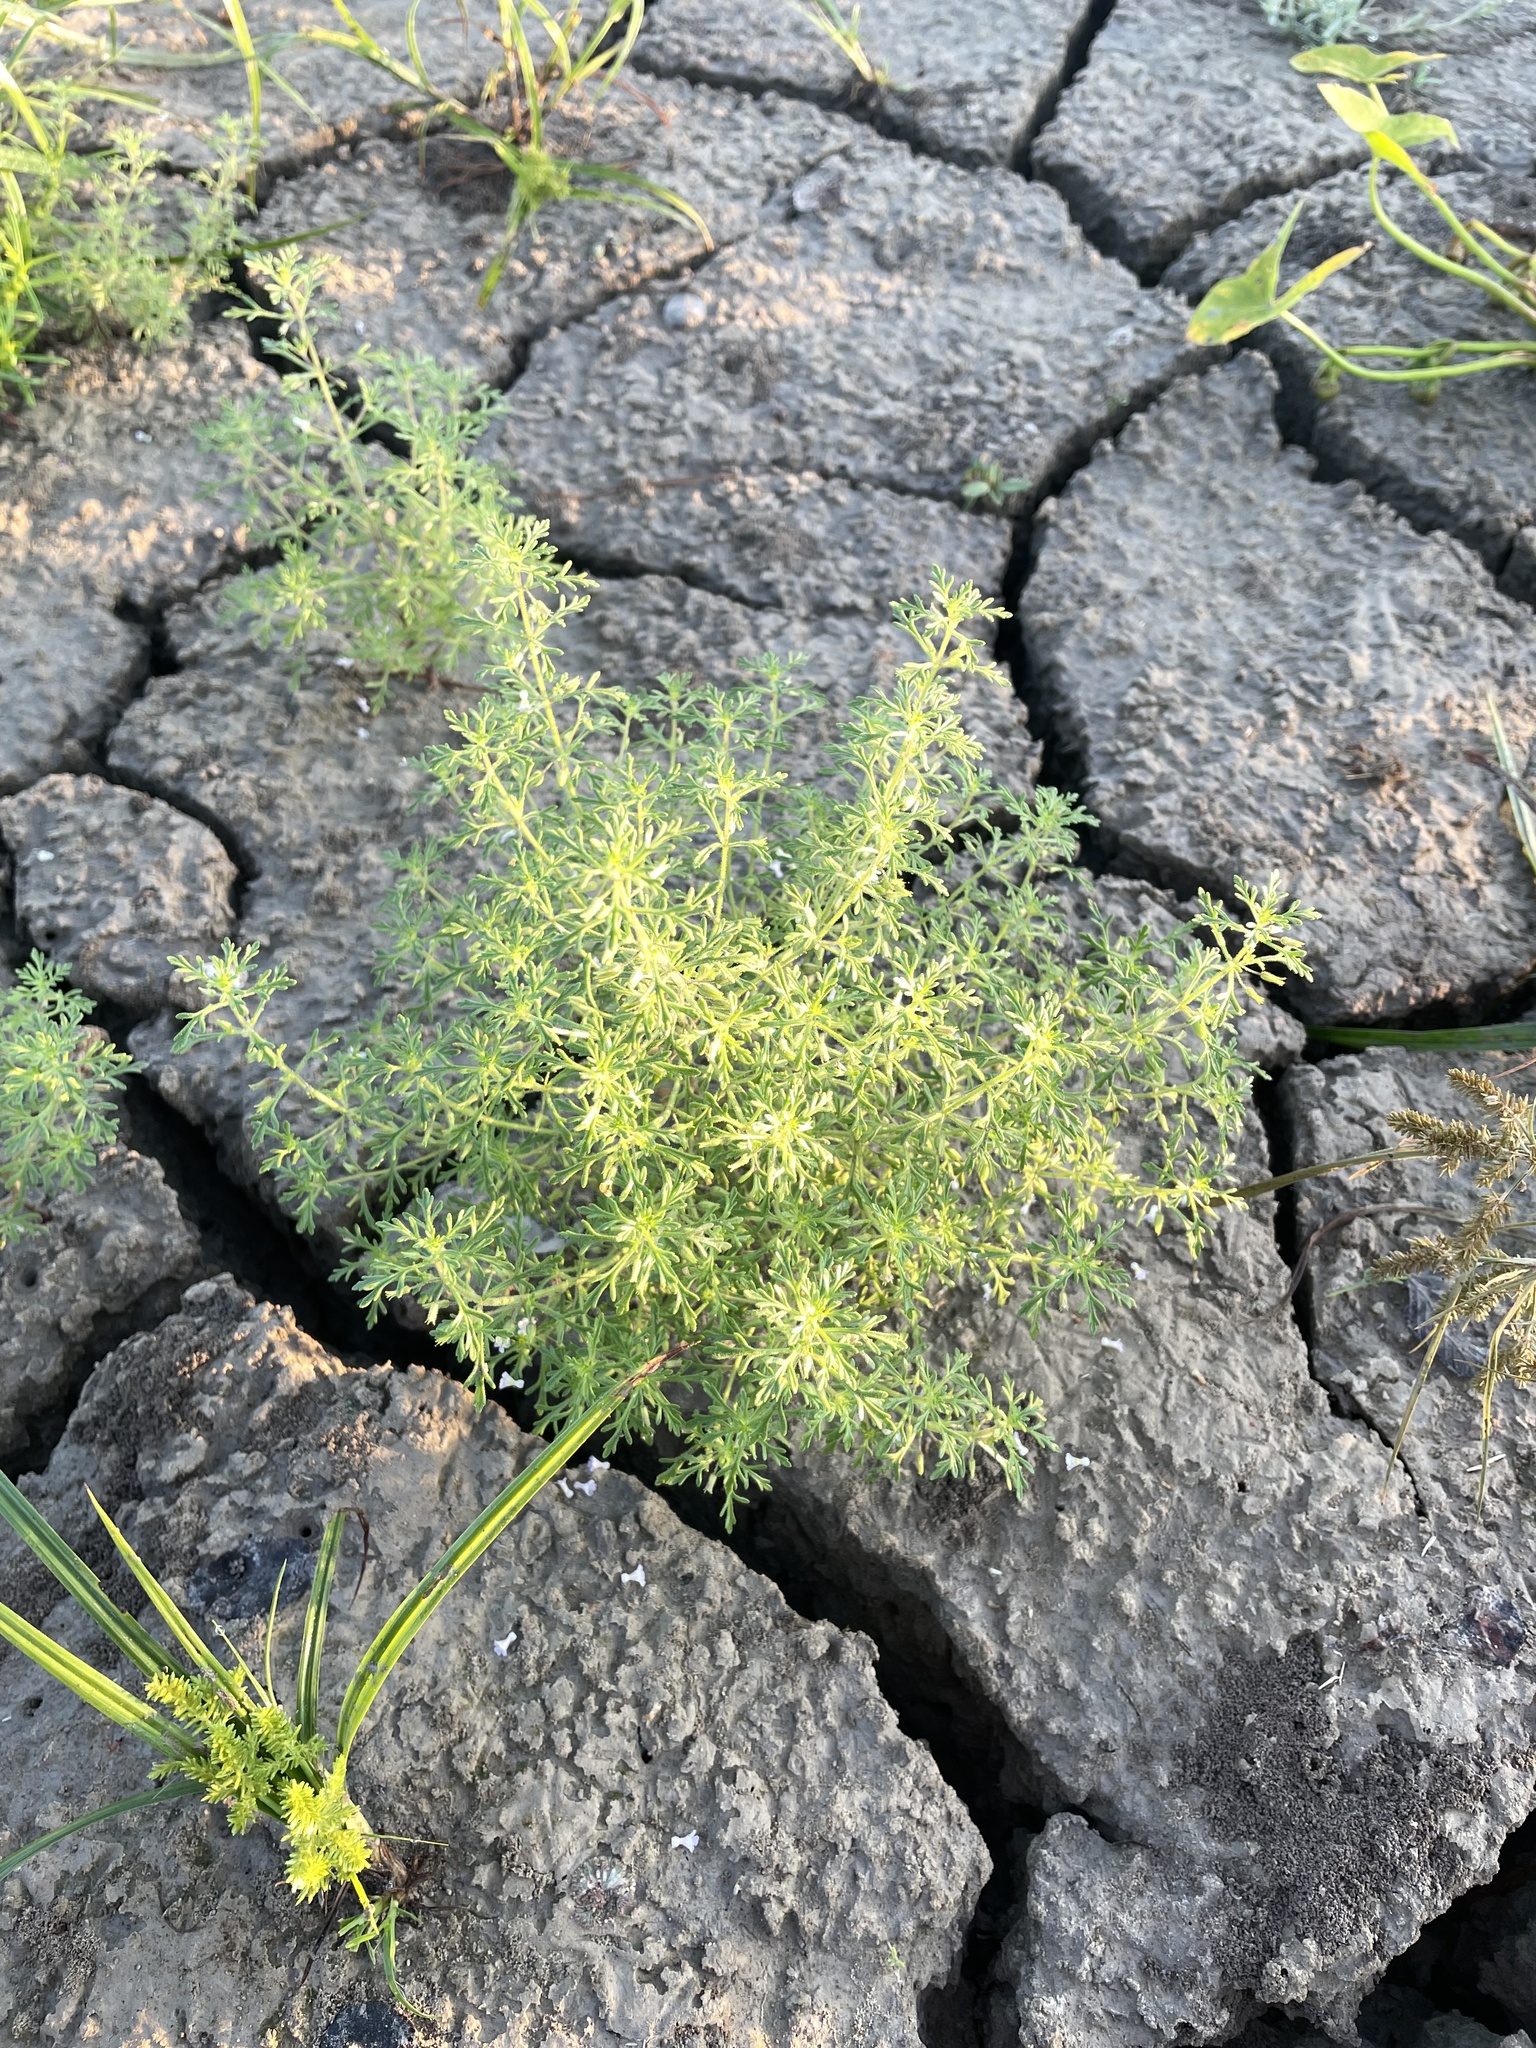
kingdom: Plantae
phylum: Tracheophyta
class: Magnoliopsida
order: Lamiales
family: Plantaginaceae
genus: Leucospora
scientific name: Leucospora multifida
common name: Narrow-leaf paleseed
